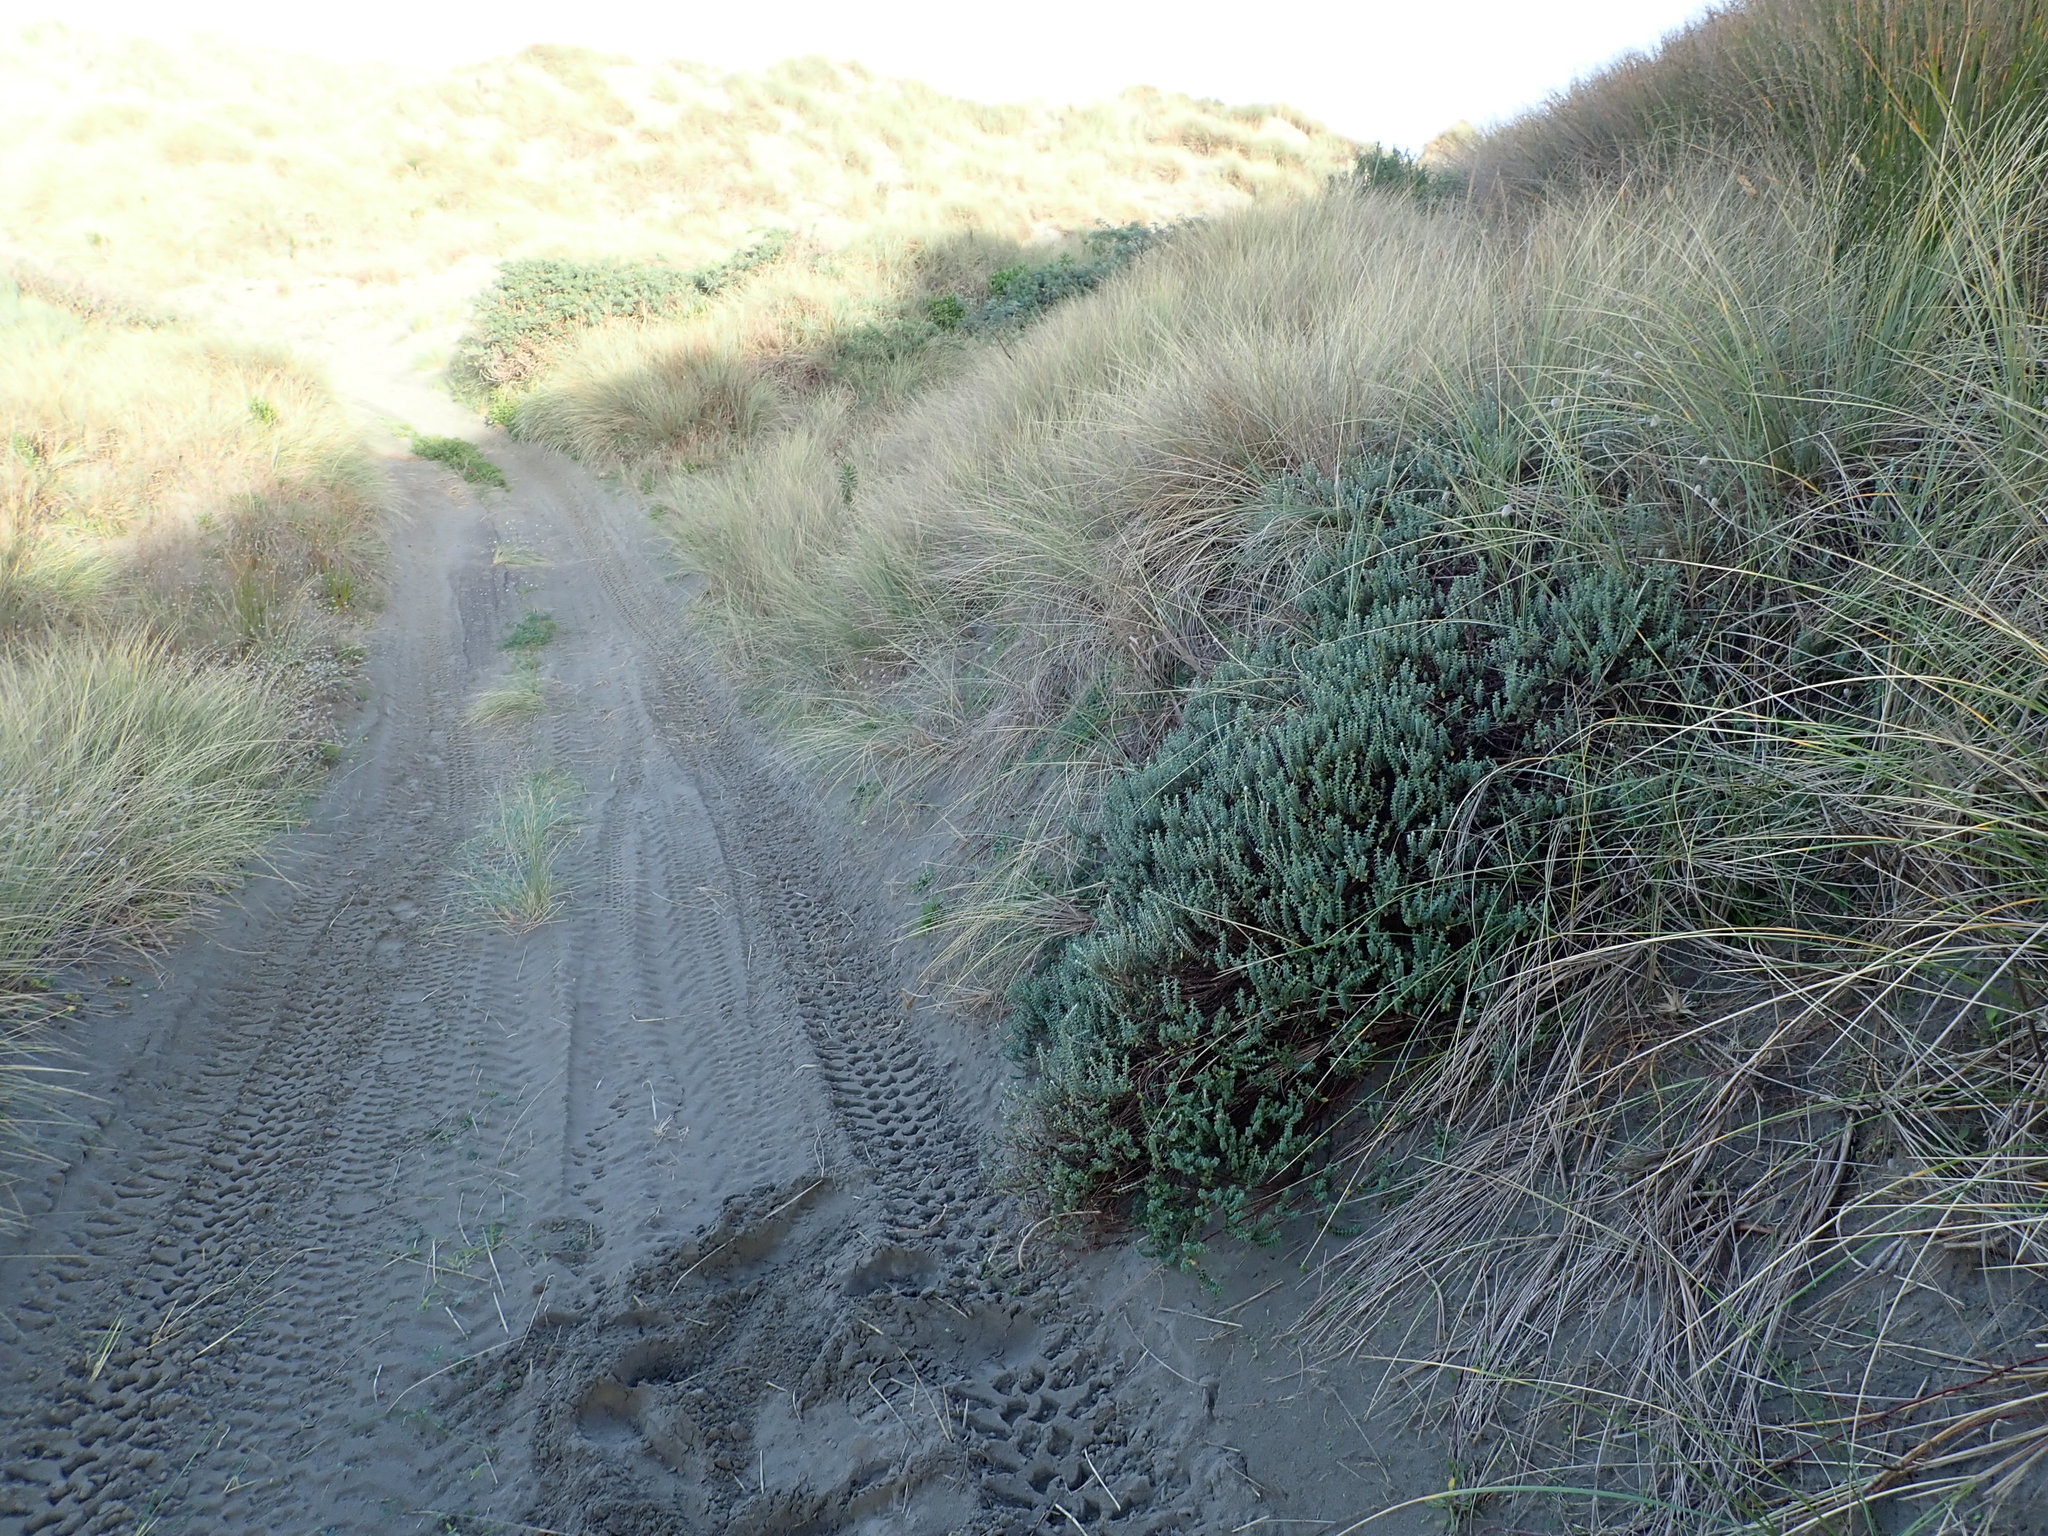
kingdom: Plantae
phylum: Tracheophyta
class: Magnoliopsida
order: Malvales
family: Thymelaeaceae
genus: Pimelea
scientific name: Pimelea villosa
